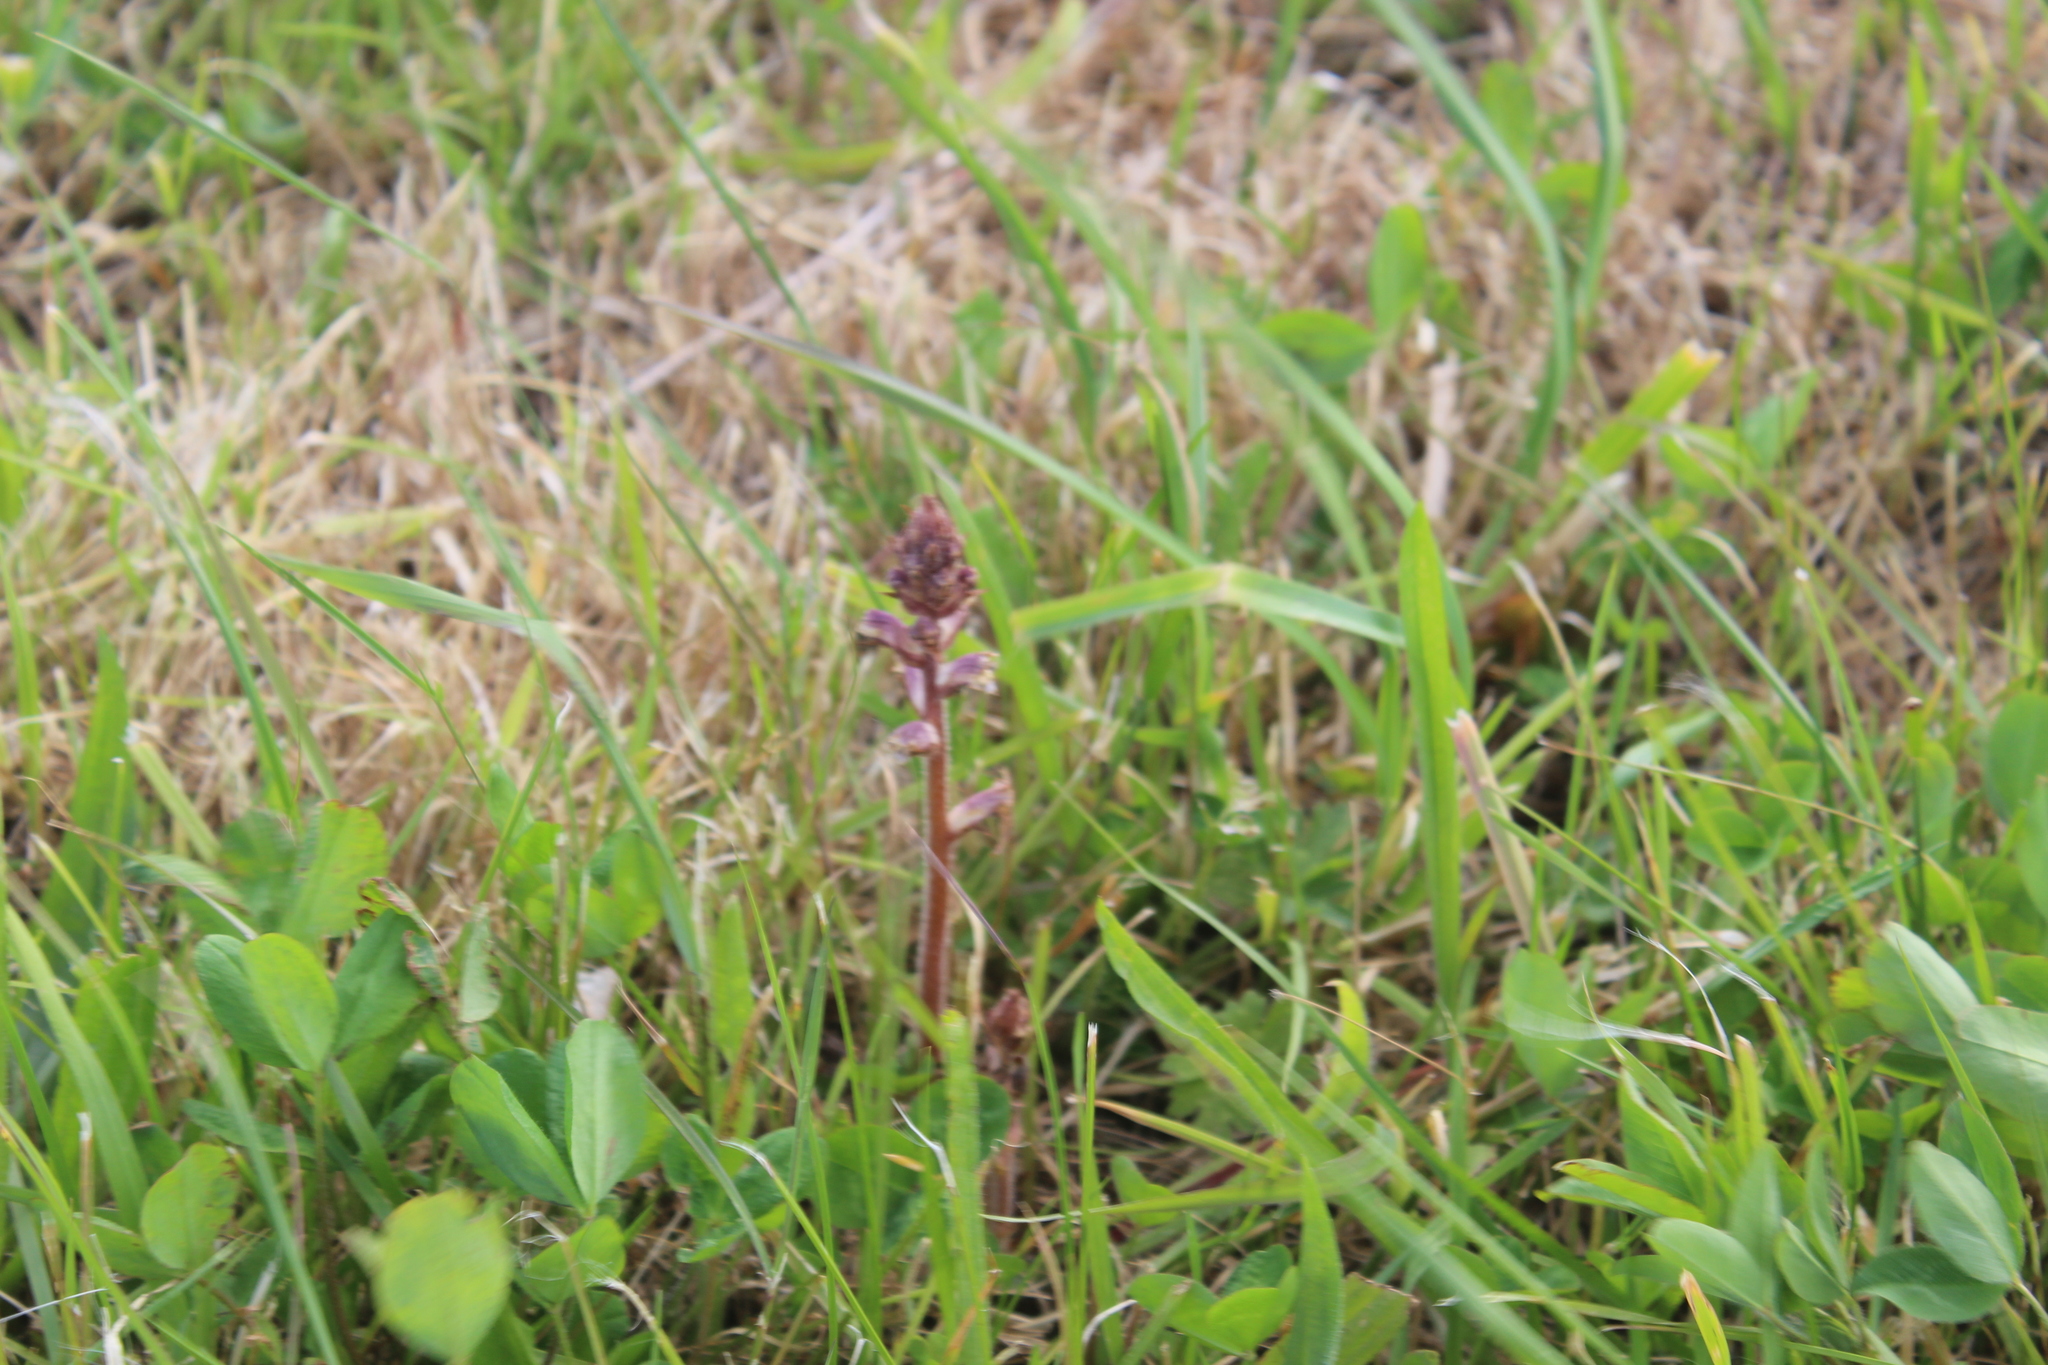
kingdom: Plantae
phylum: Tracheophyta
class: Magnoliopsida
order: Lamiales
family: Orobanchaceae
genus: Orobanche
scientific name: Orobanche minor
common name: Common broomrape
